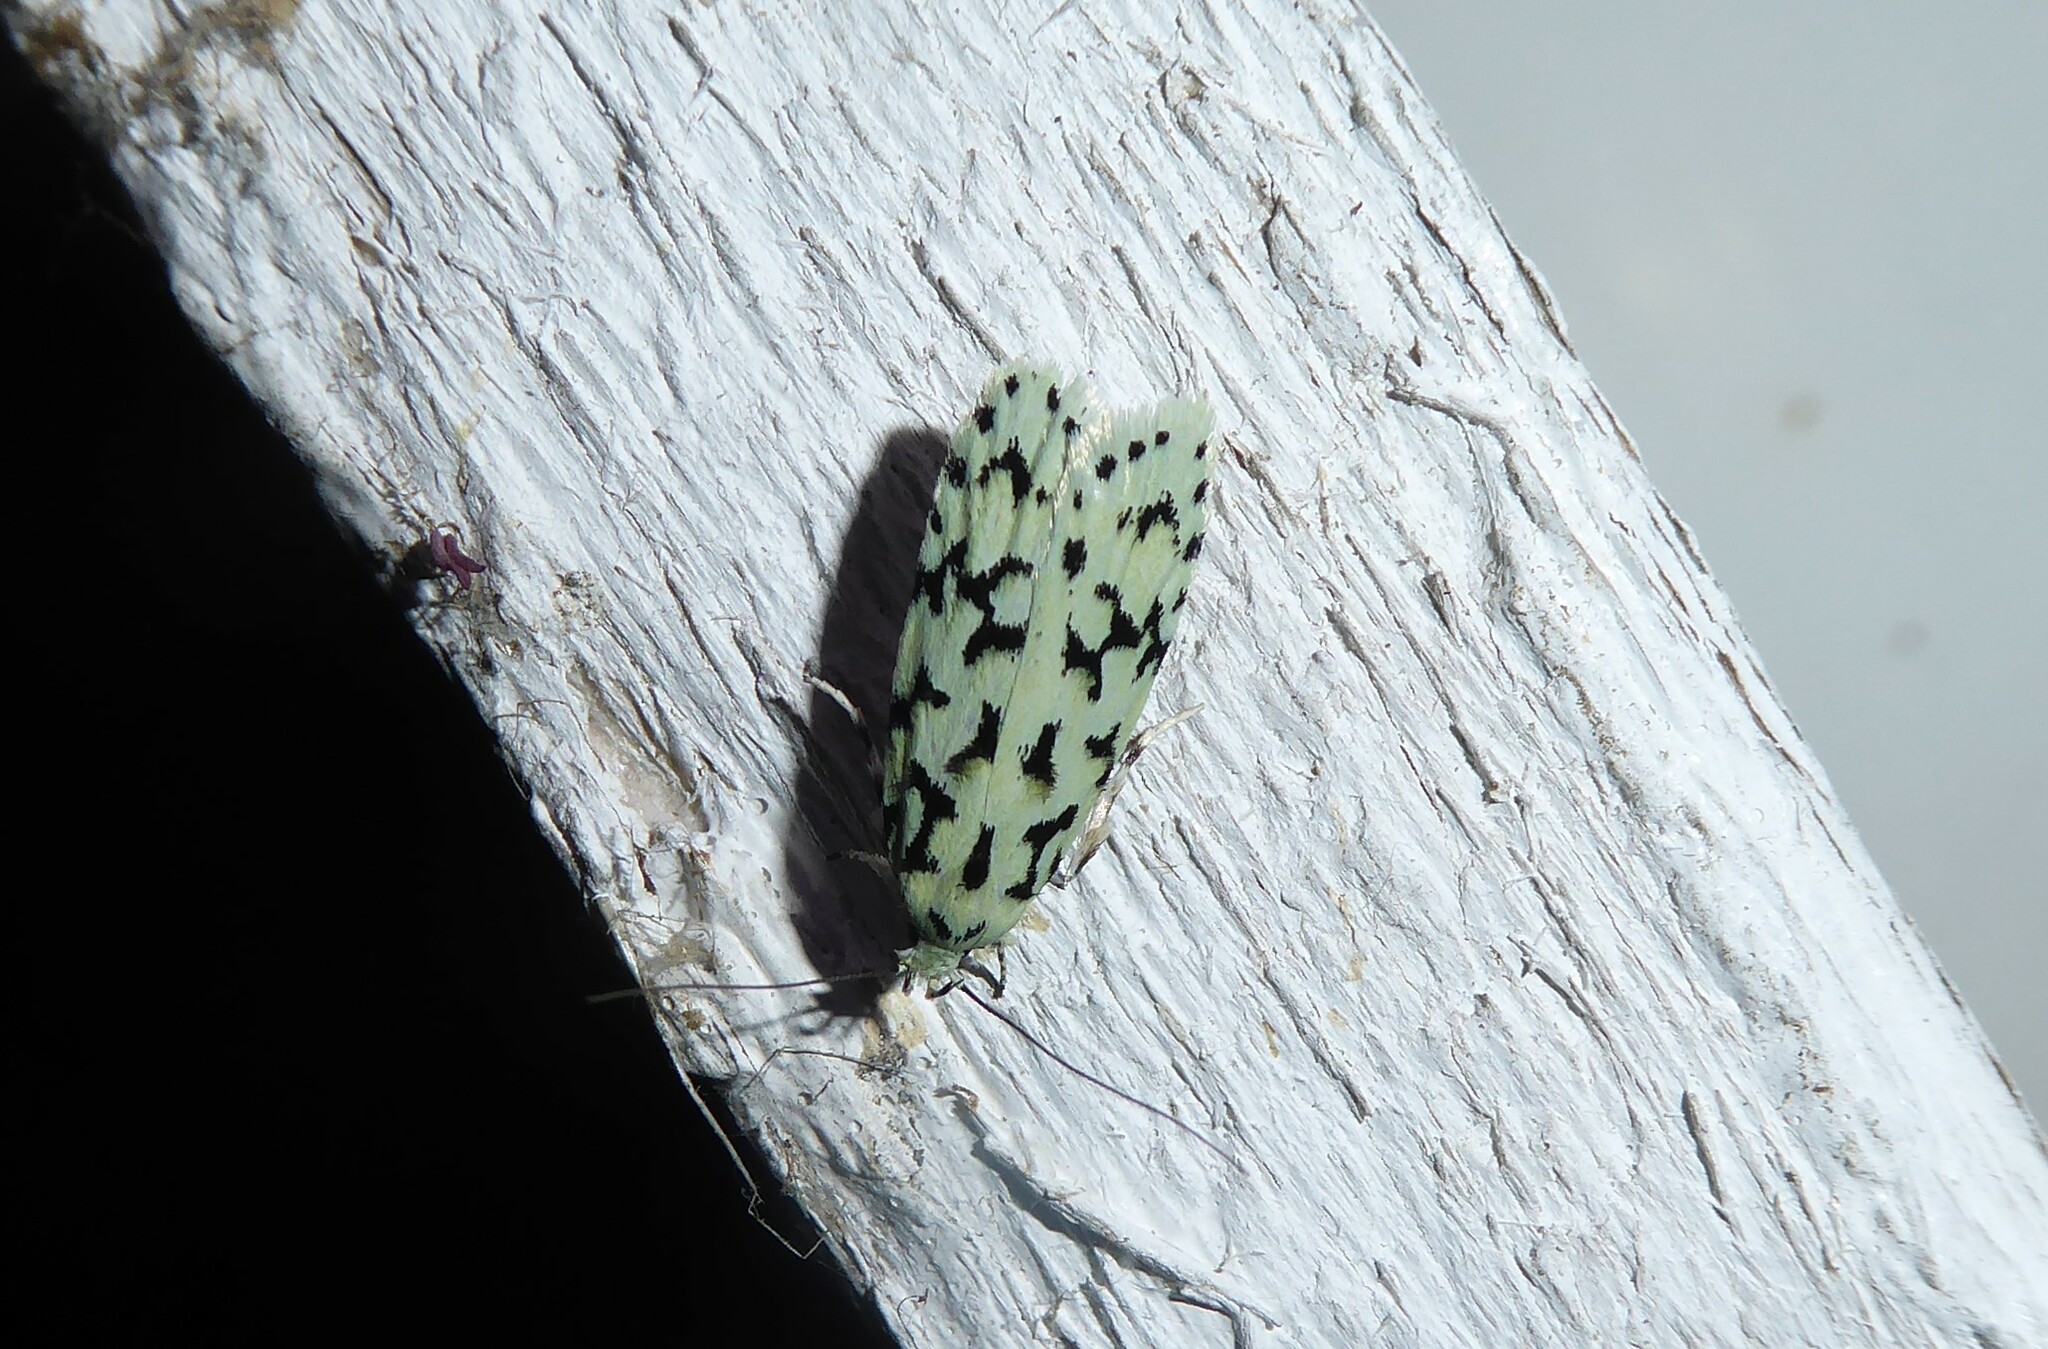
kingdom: Animalia
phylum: Arthropoda
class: Insecta
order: Lepidoptera
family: Oecophoridae
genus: Izatha
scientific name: Izatha huttoni
